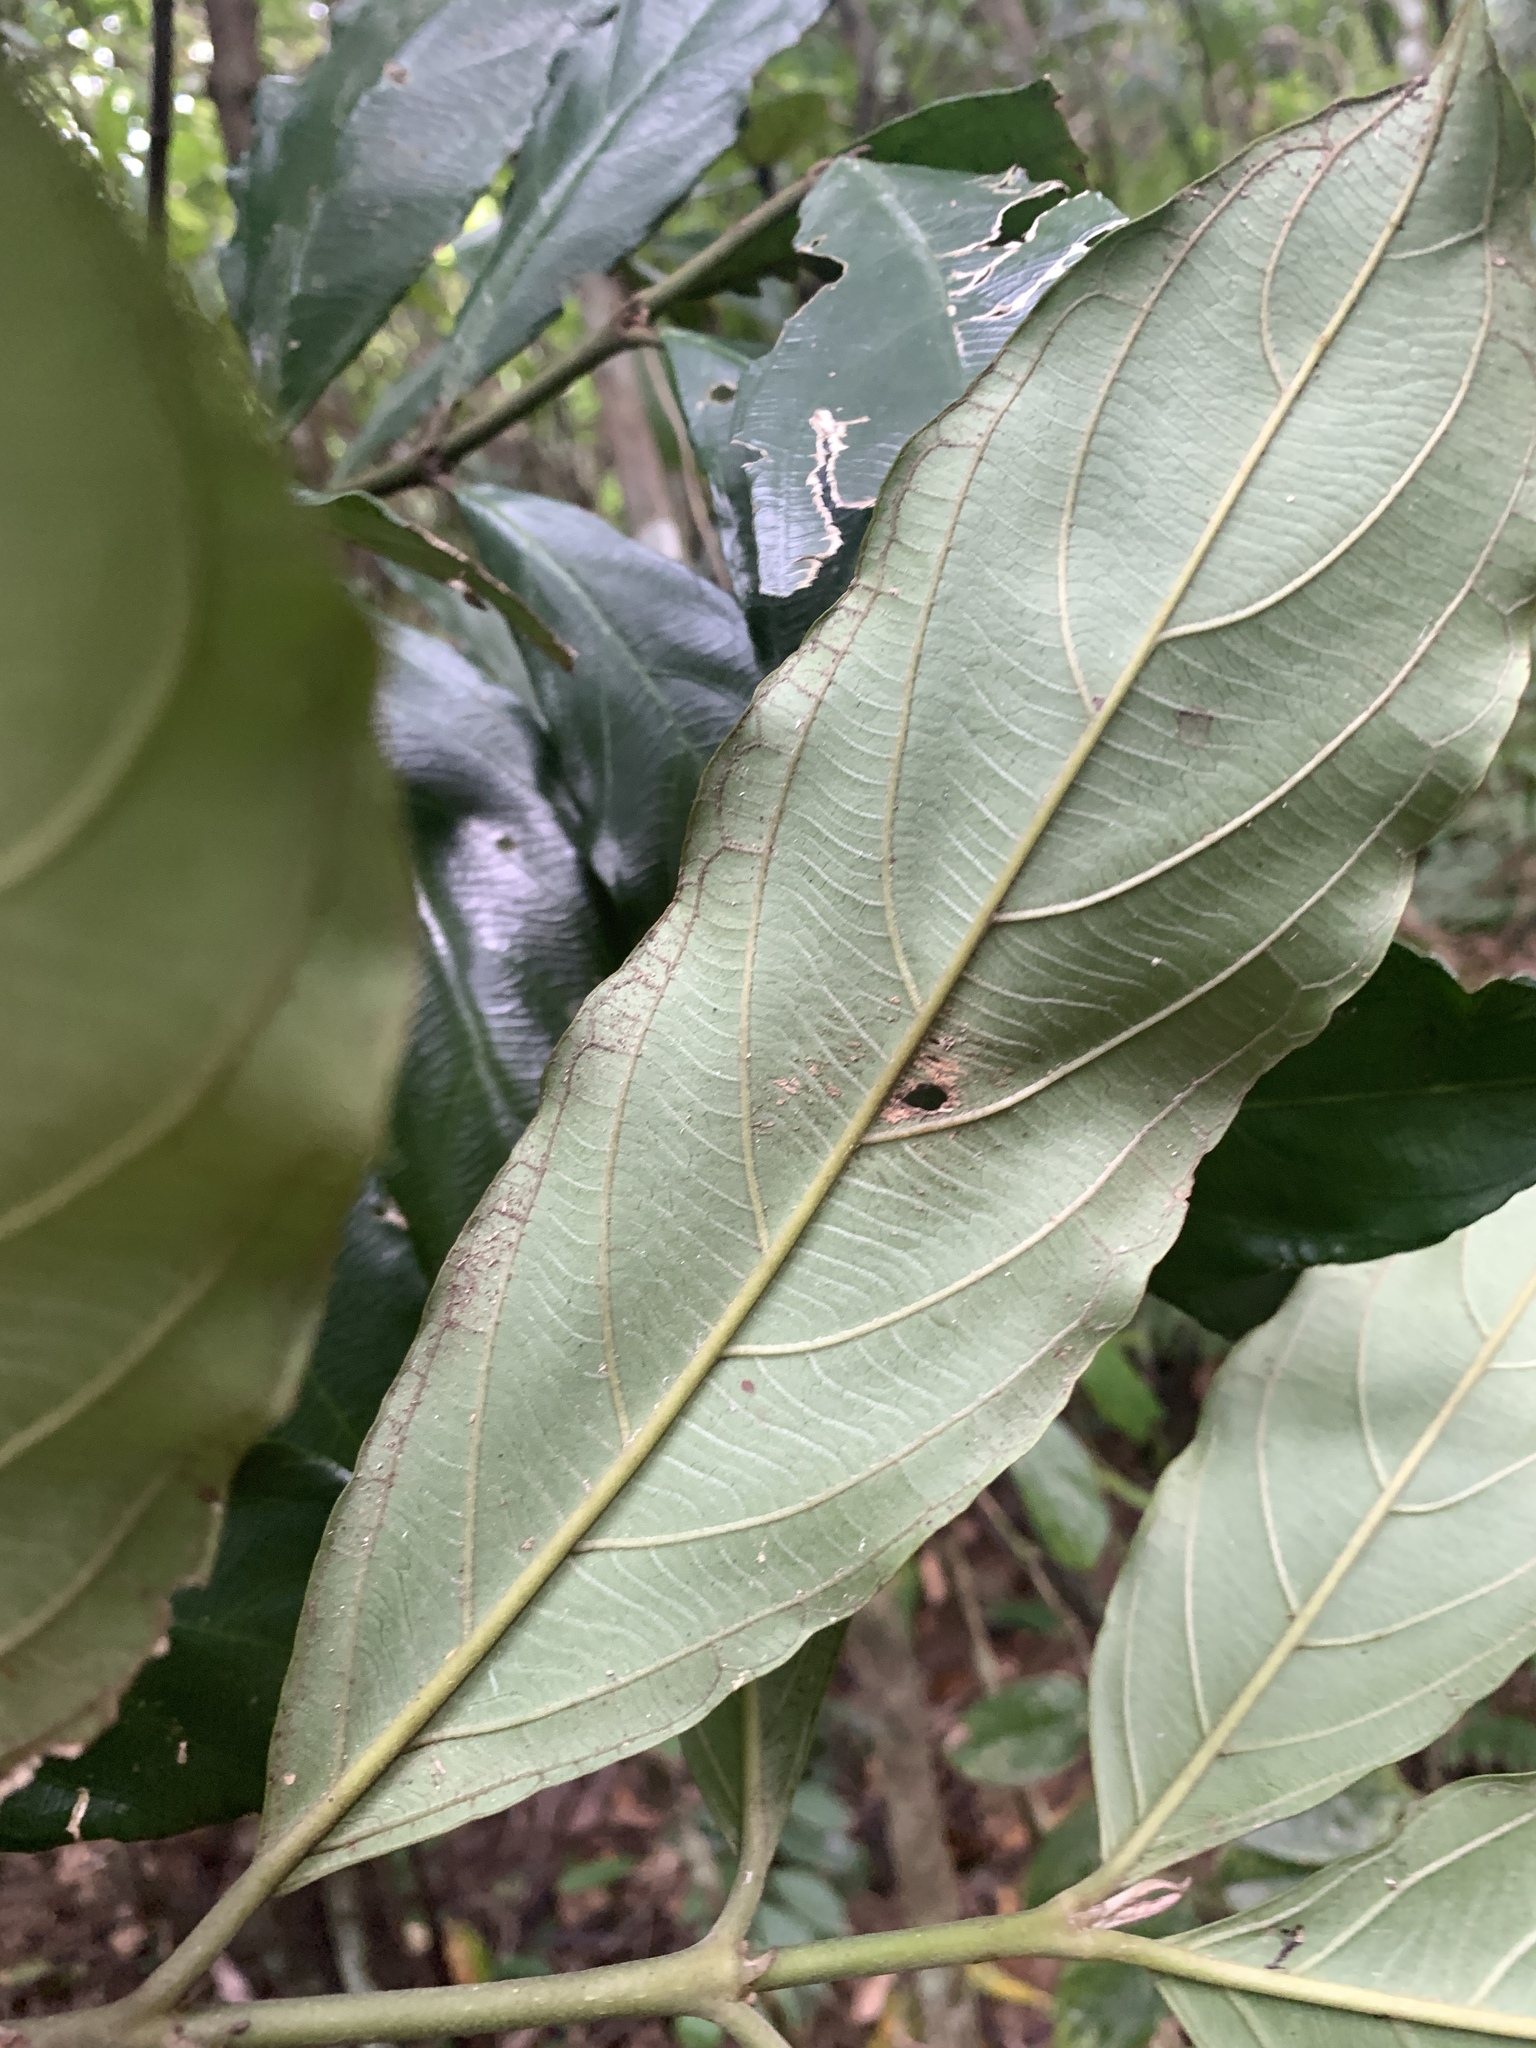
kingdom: Plantae
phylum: Tracheophyta
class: Magnoliopsida
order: Gentianales
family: Rubiaceae
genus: Lasianthus
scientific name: Lasianthus verticillatus
